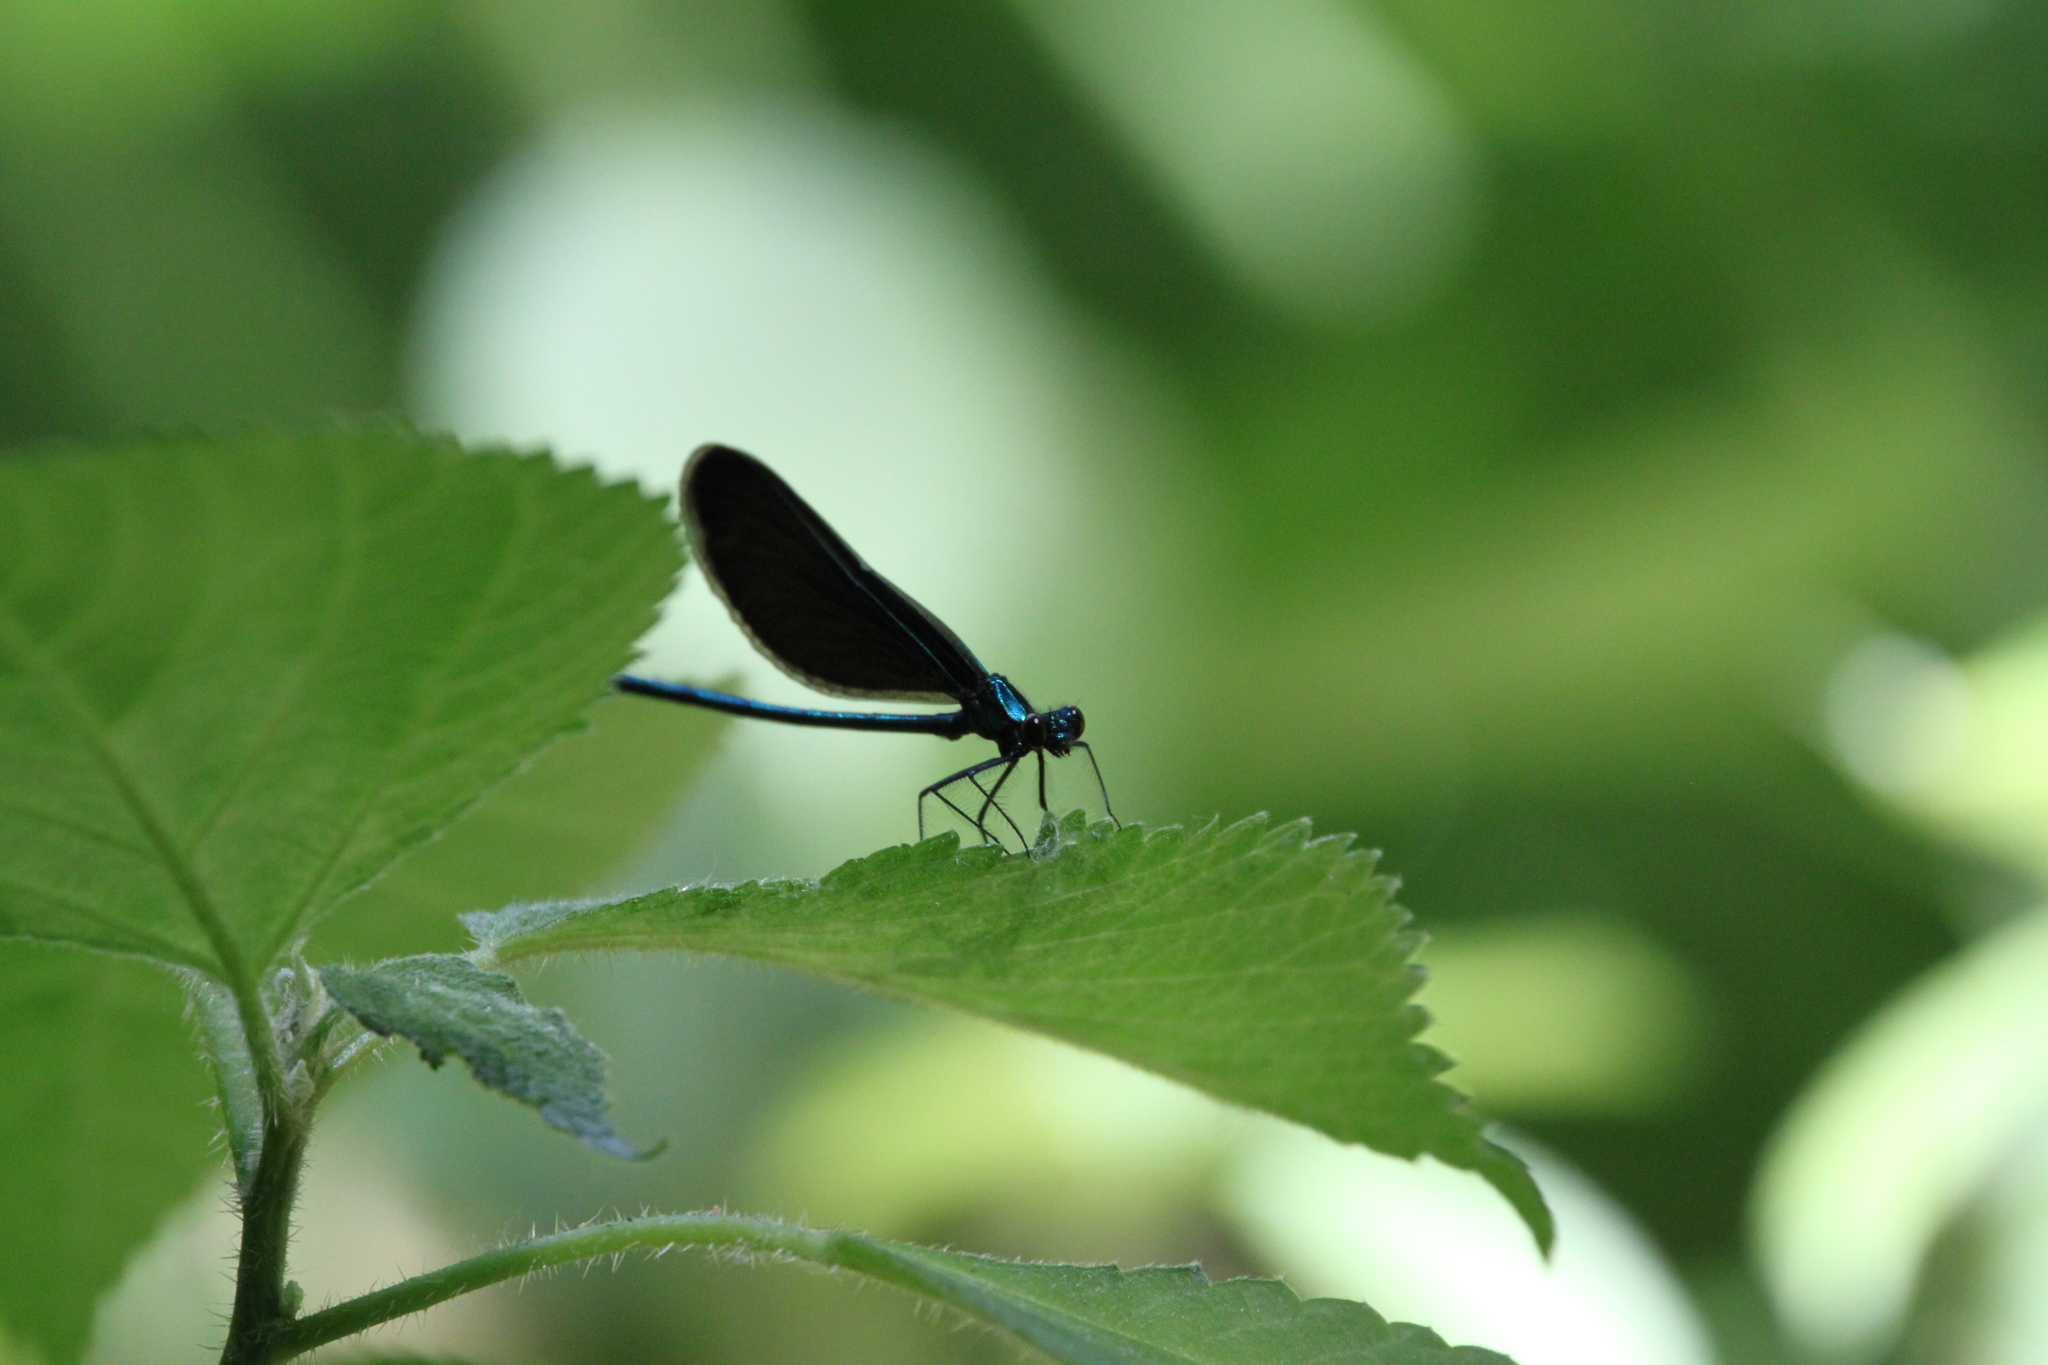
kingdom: Animalia
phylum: Arthropoda
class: Insecta
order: Odonata
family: Calopterygidae
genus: Calopteryx
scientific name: Calopteryx maculata
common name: Ebony jewelwing
